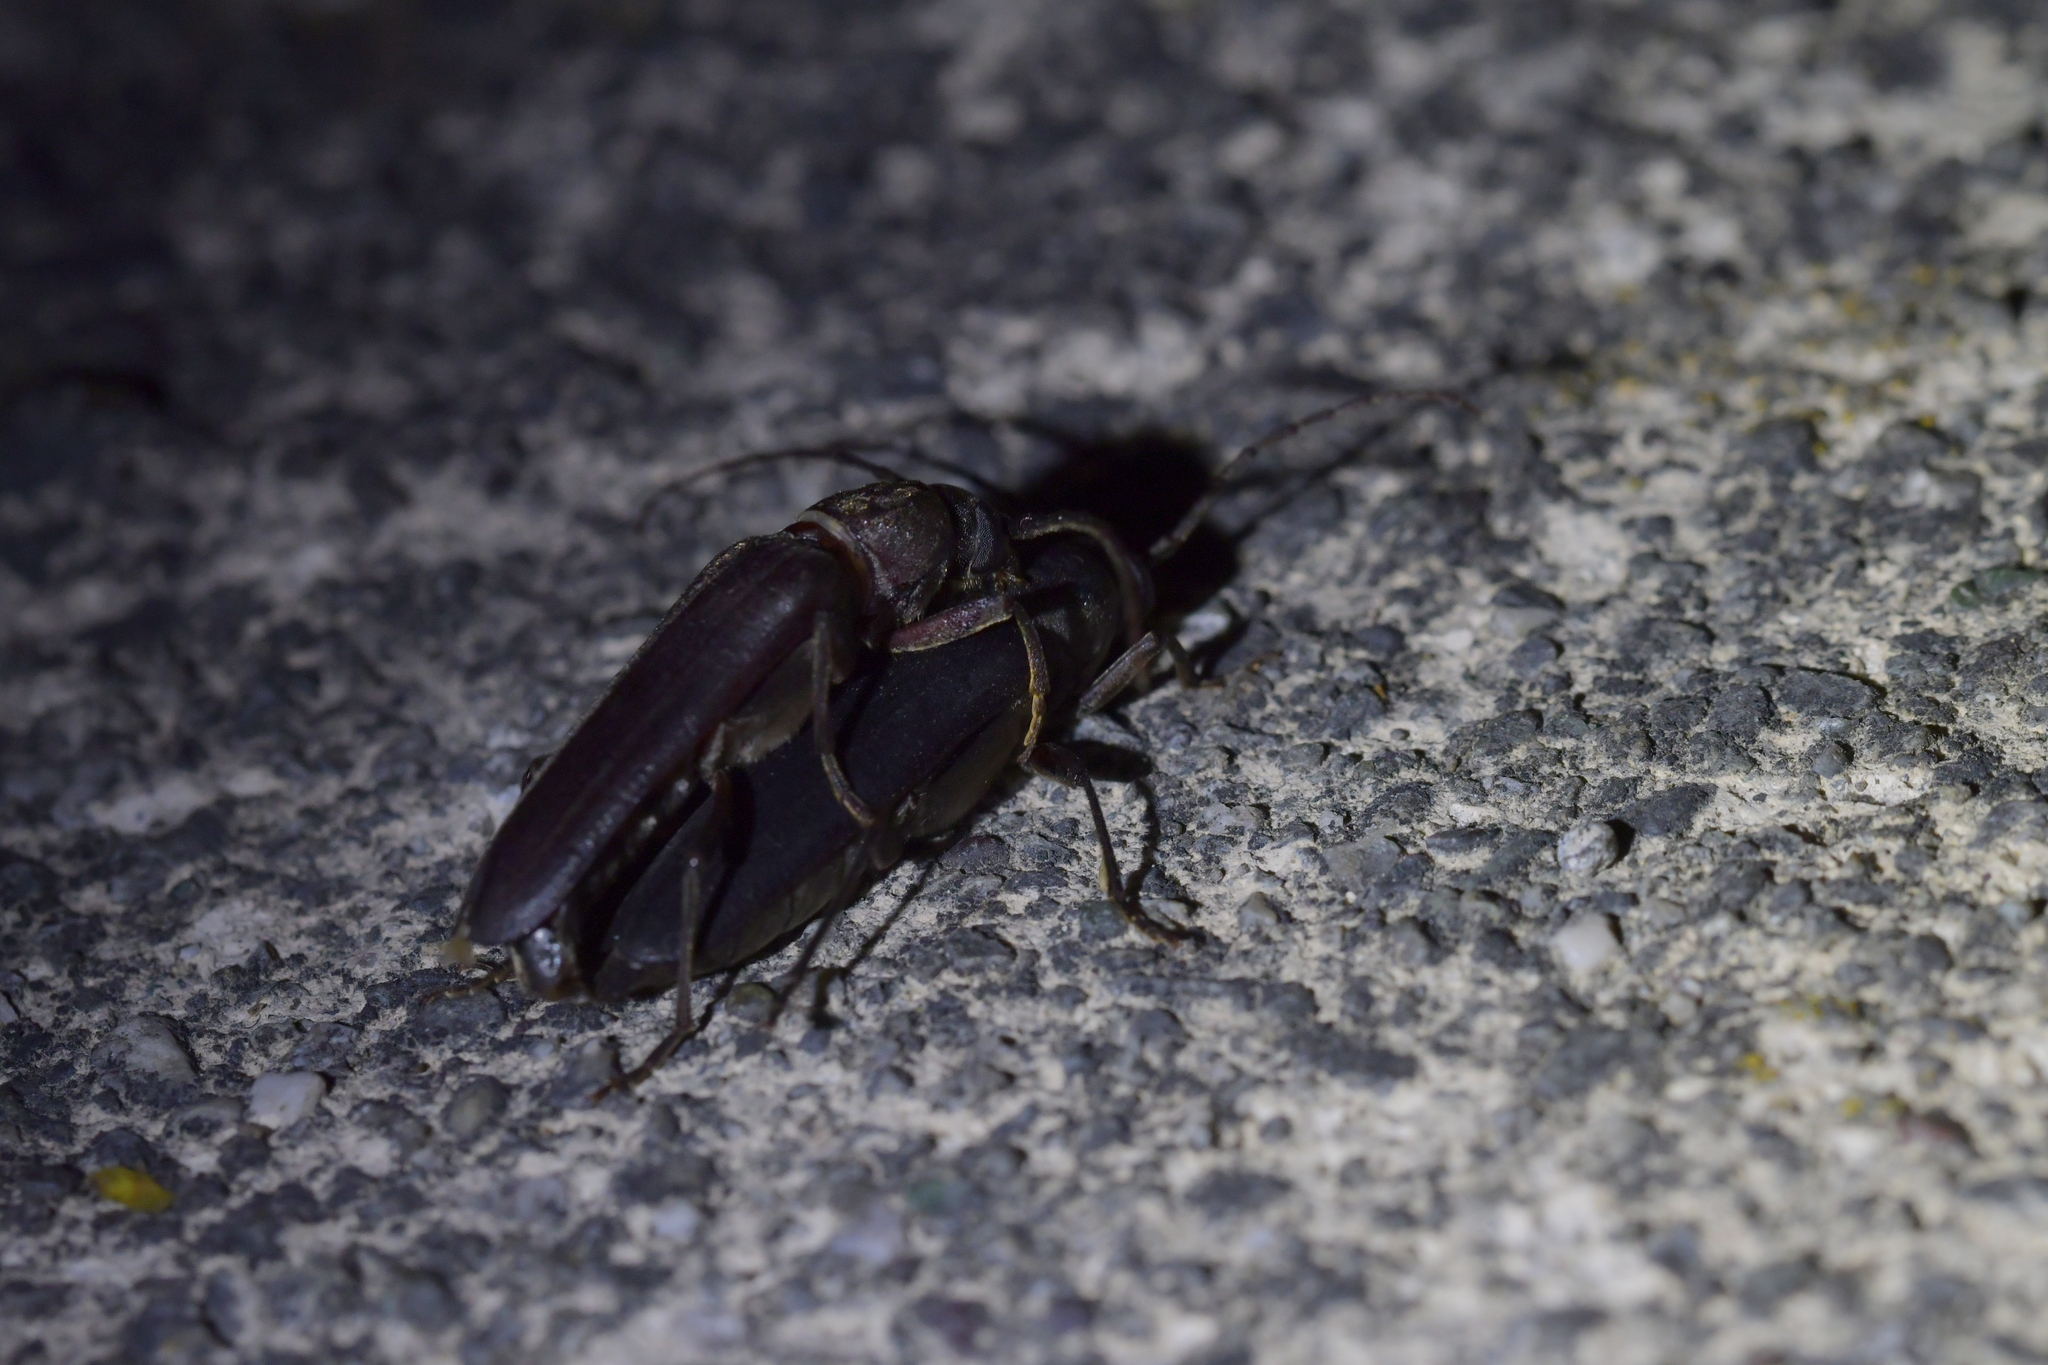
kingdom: Animalia
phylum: Arthropoda
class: Insecta
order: Coleoptera
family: Cerambycidae
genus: Arhopalus
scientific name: Arhopalus ferus
